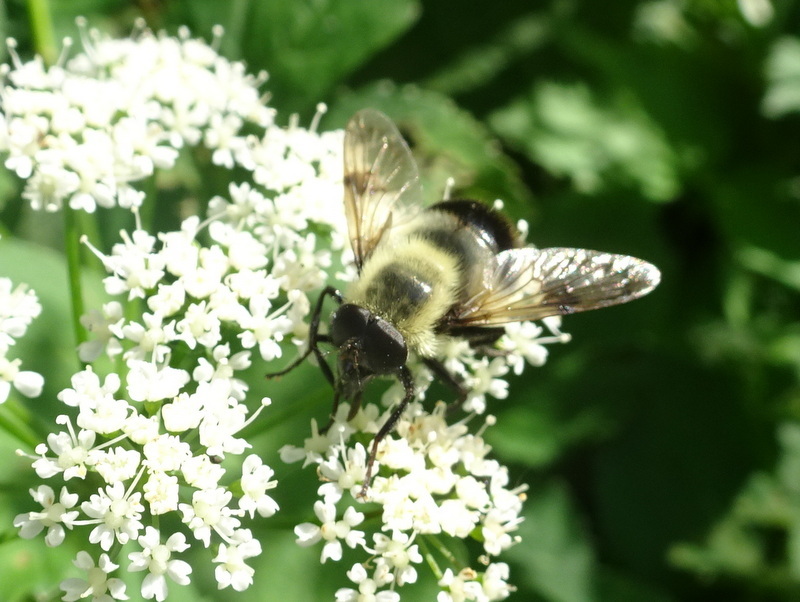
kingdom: Animalia
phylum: Arthropoda
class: Insecta
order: Diptera
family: Syrphidae
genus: Volucella
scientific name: Volucella evecta
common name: Eastern swiftwing
